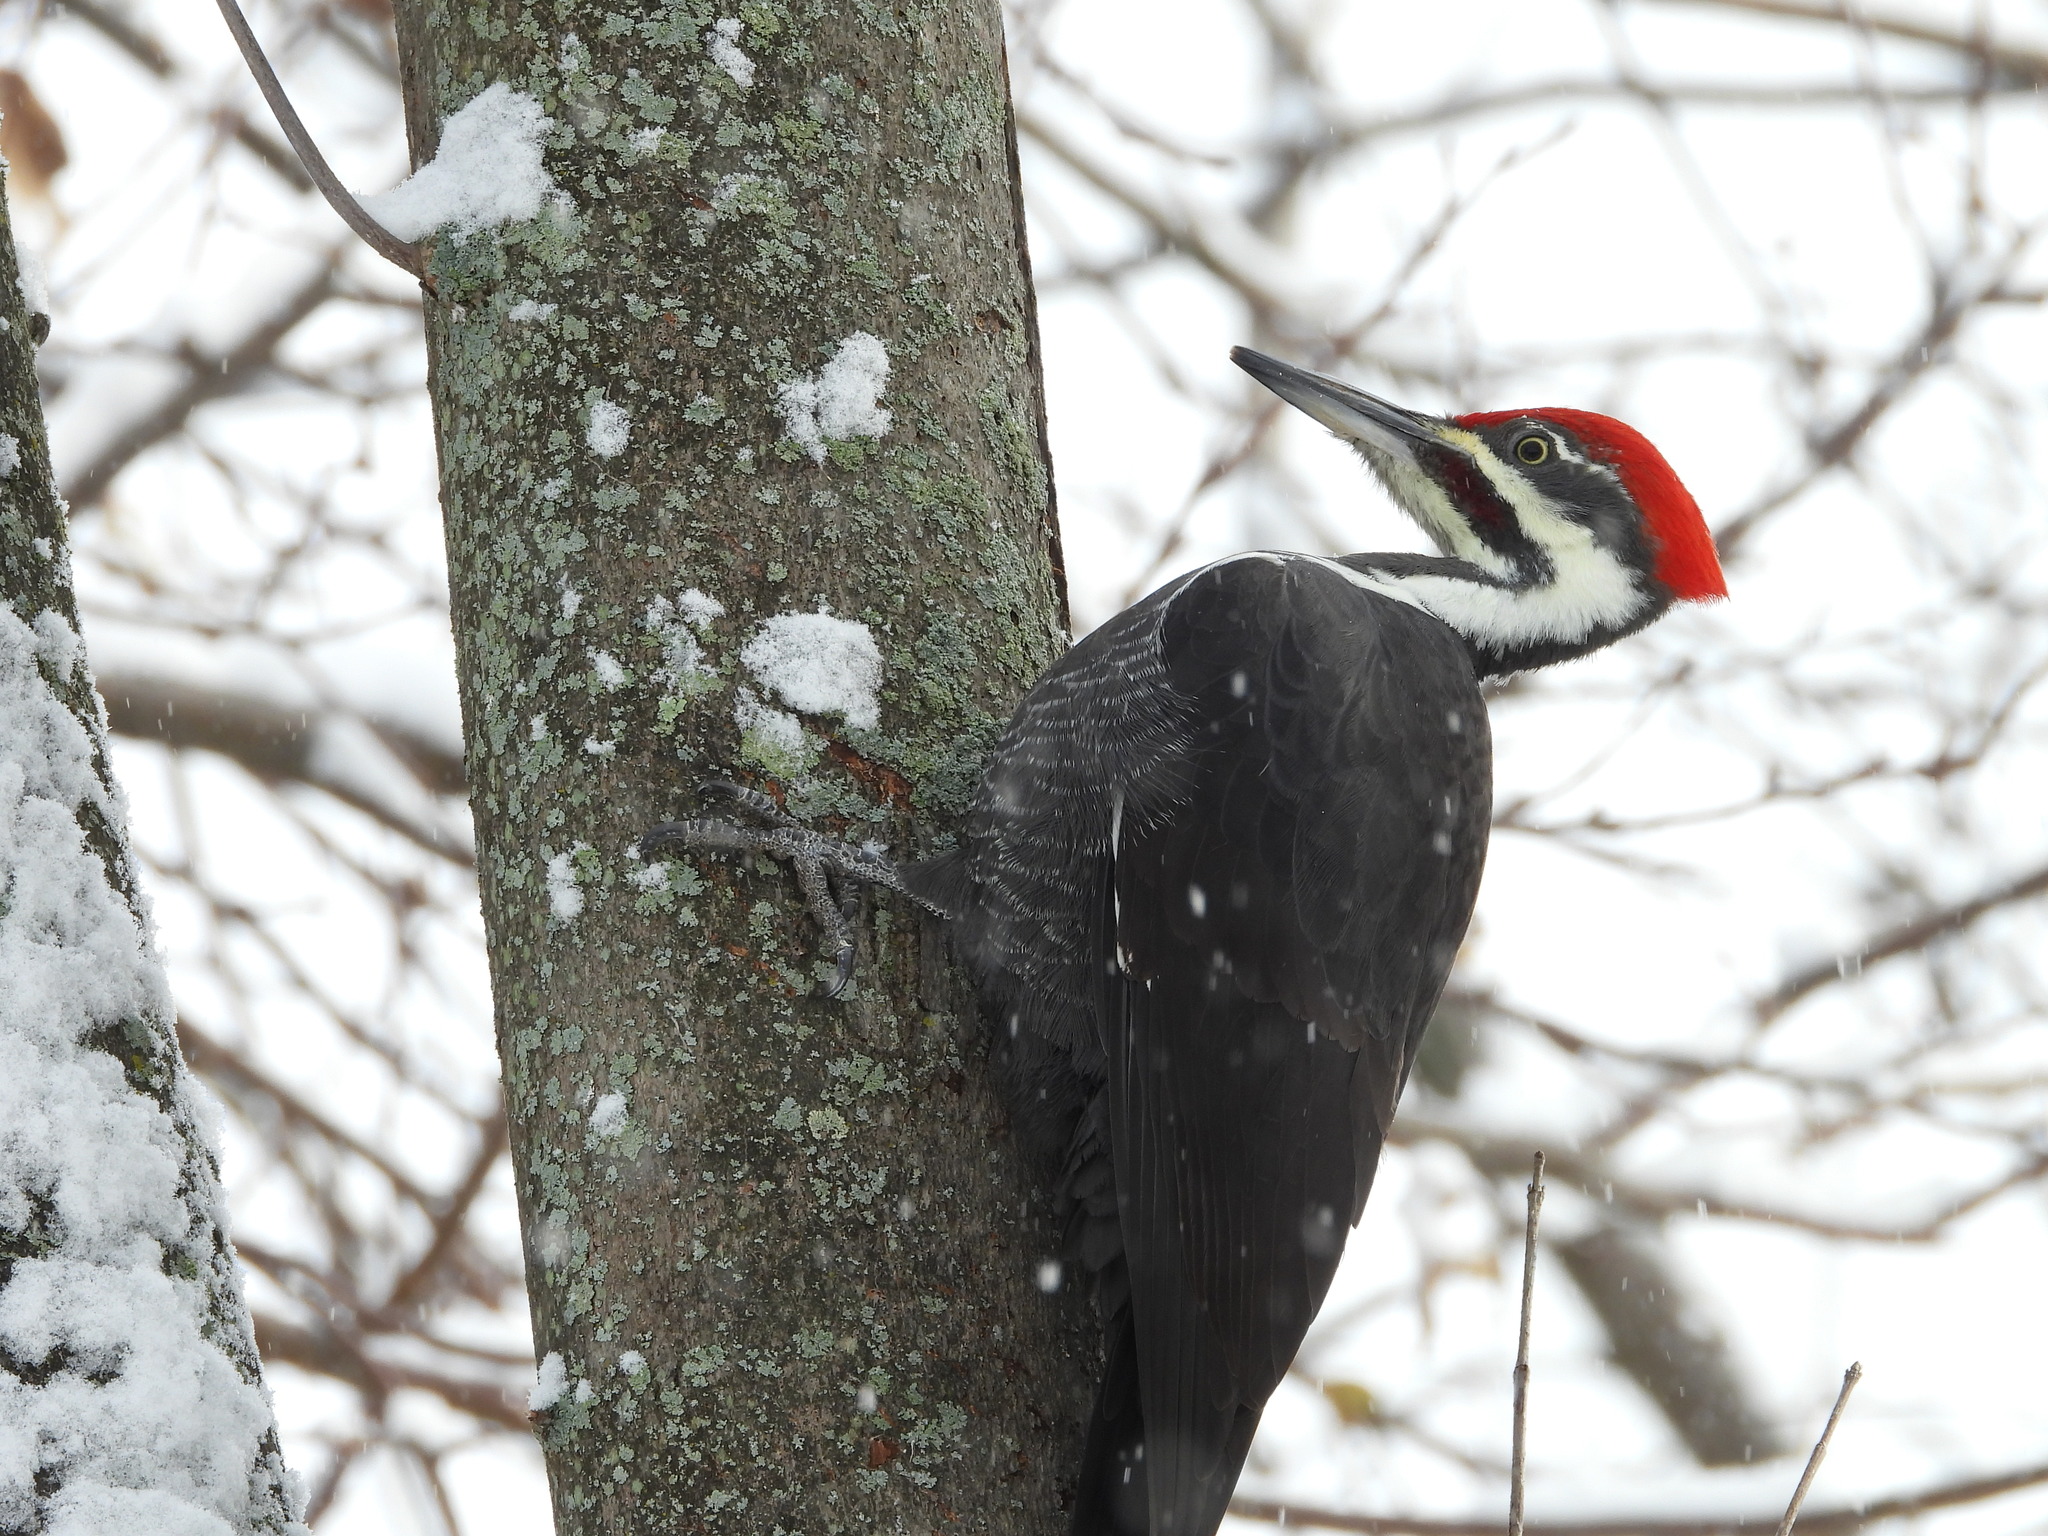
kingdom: Animalia
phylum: Chordata
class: Aves
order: Piciformes
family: Picidae
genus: Dryocopus
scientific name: Dryocopus pileatus
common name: Pileated woodpecker
